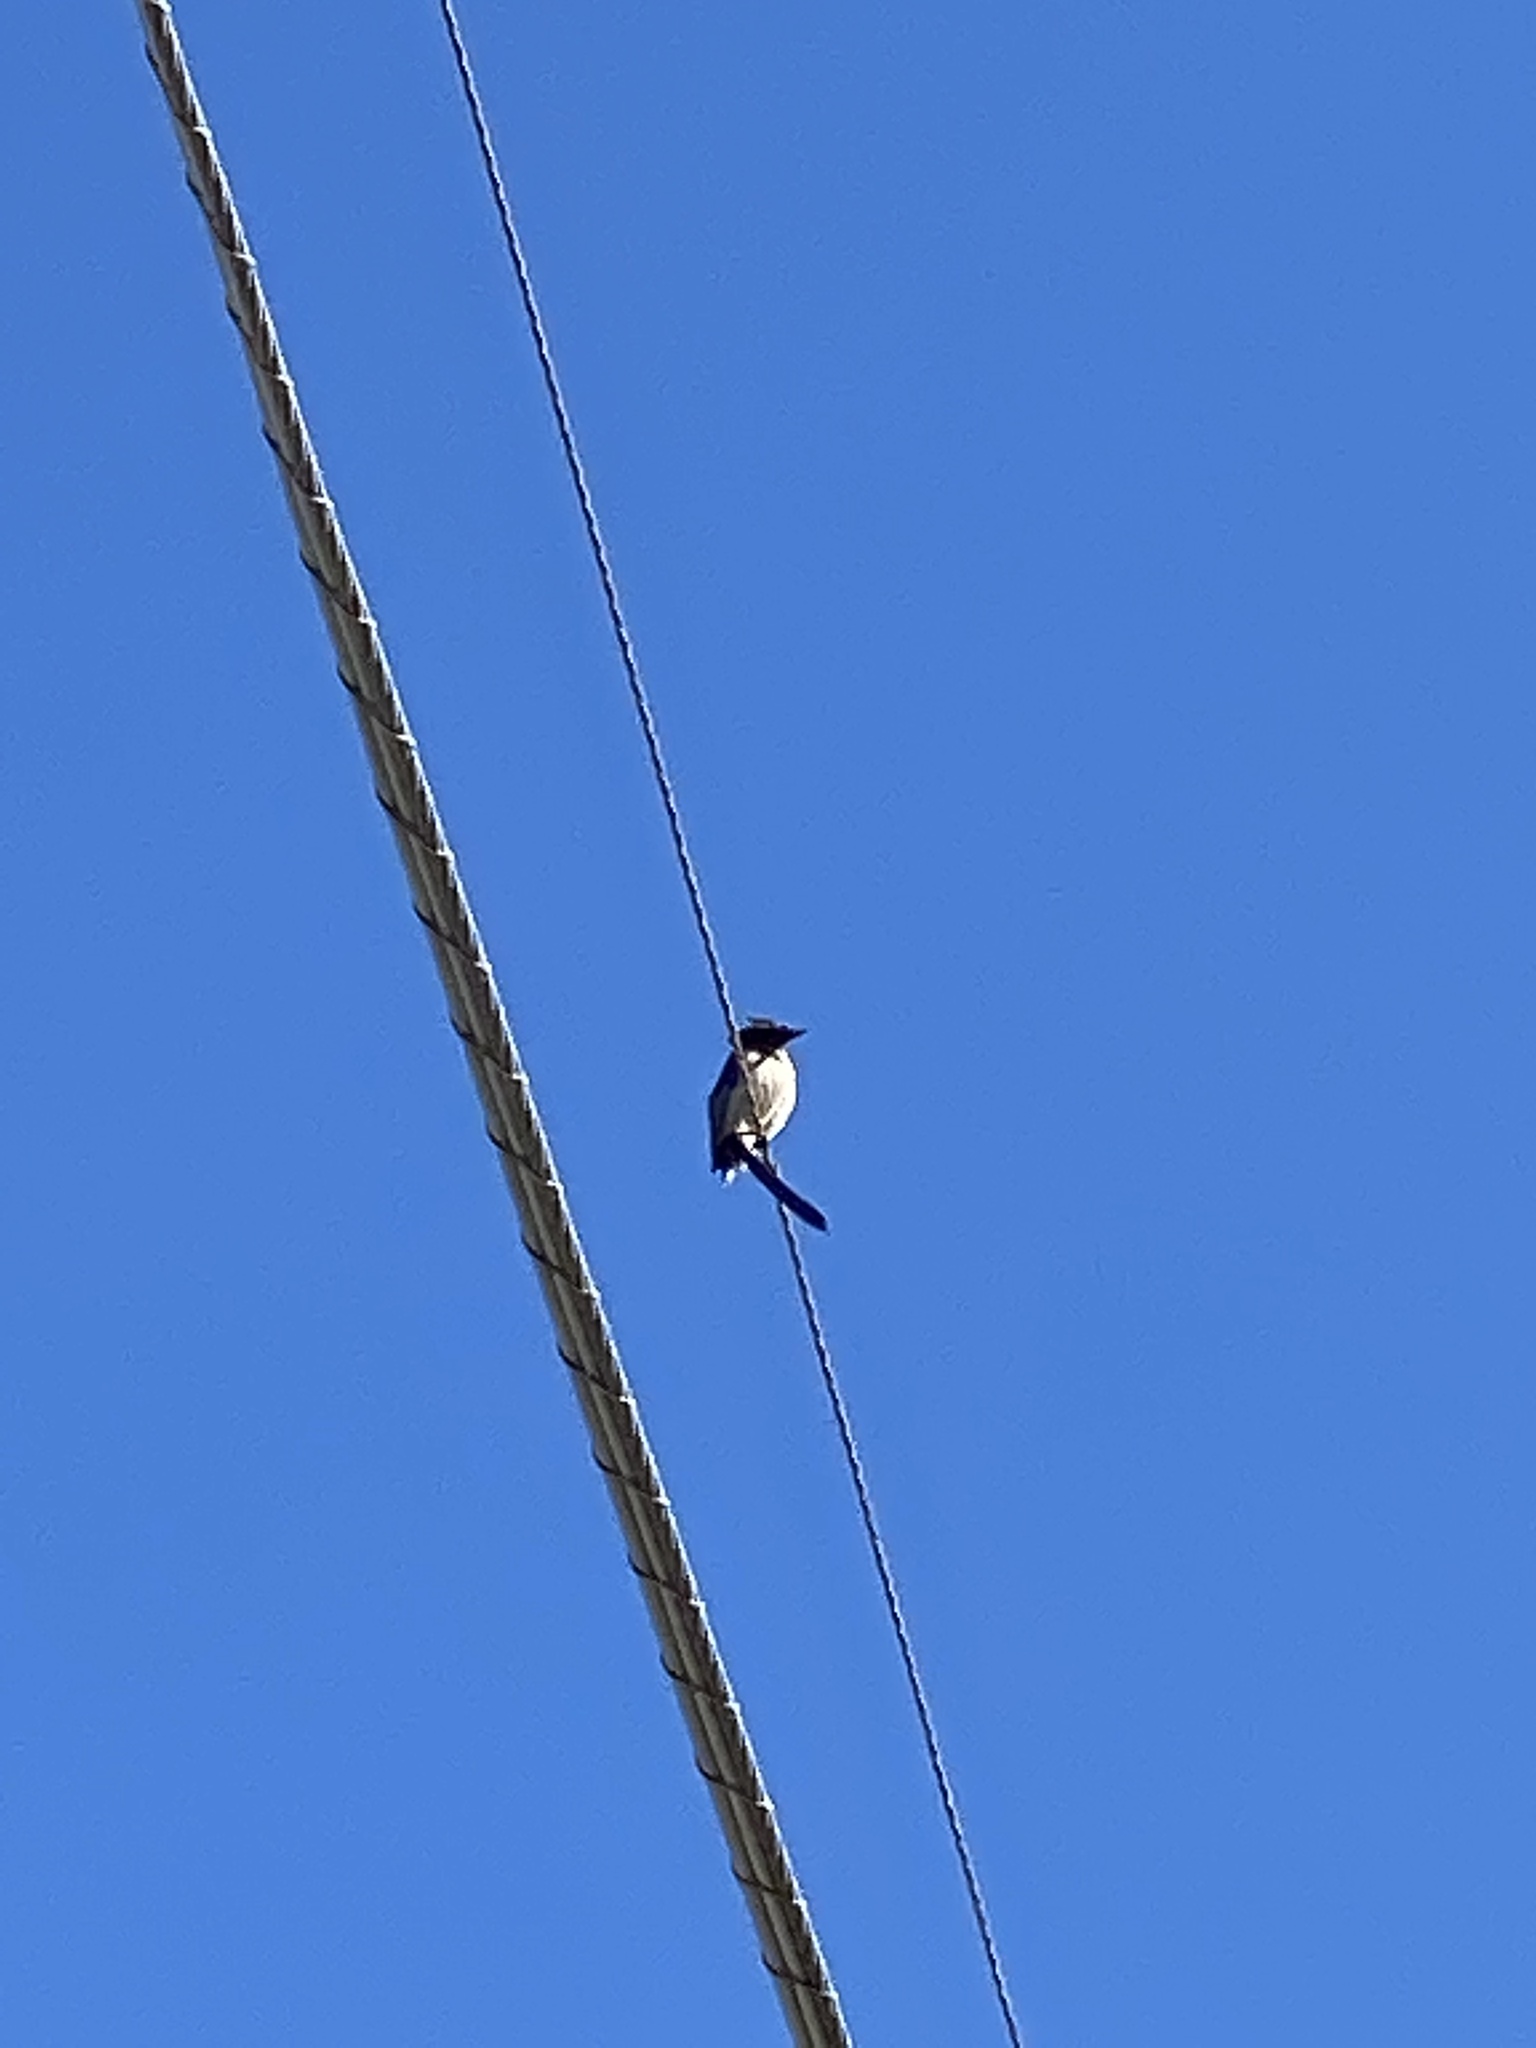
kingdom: Animalia
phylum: Chordata
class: Aves
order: Passeriformes
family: Corvidae
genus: Aphelocoma
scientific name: Aphelocoma californica
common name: California scrub-jay
